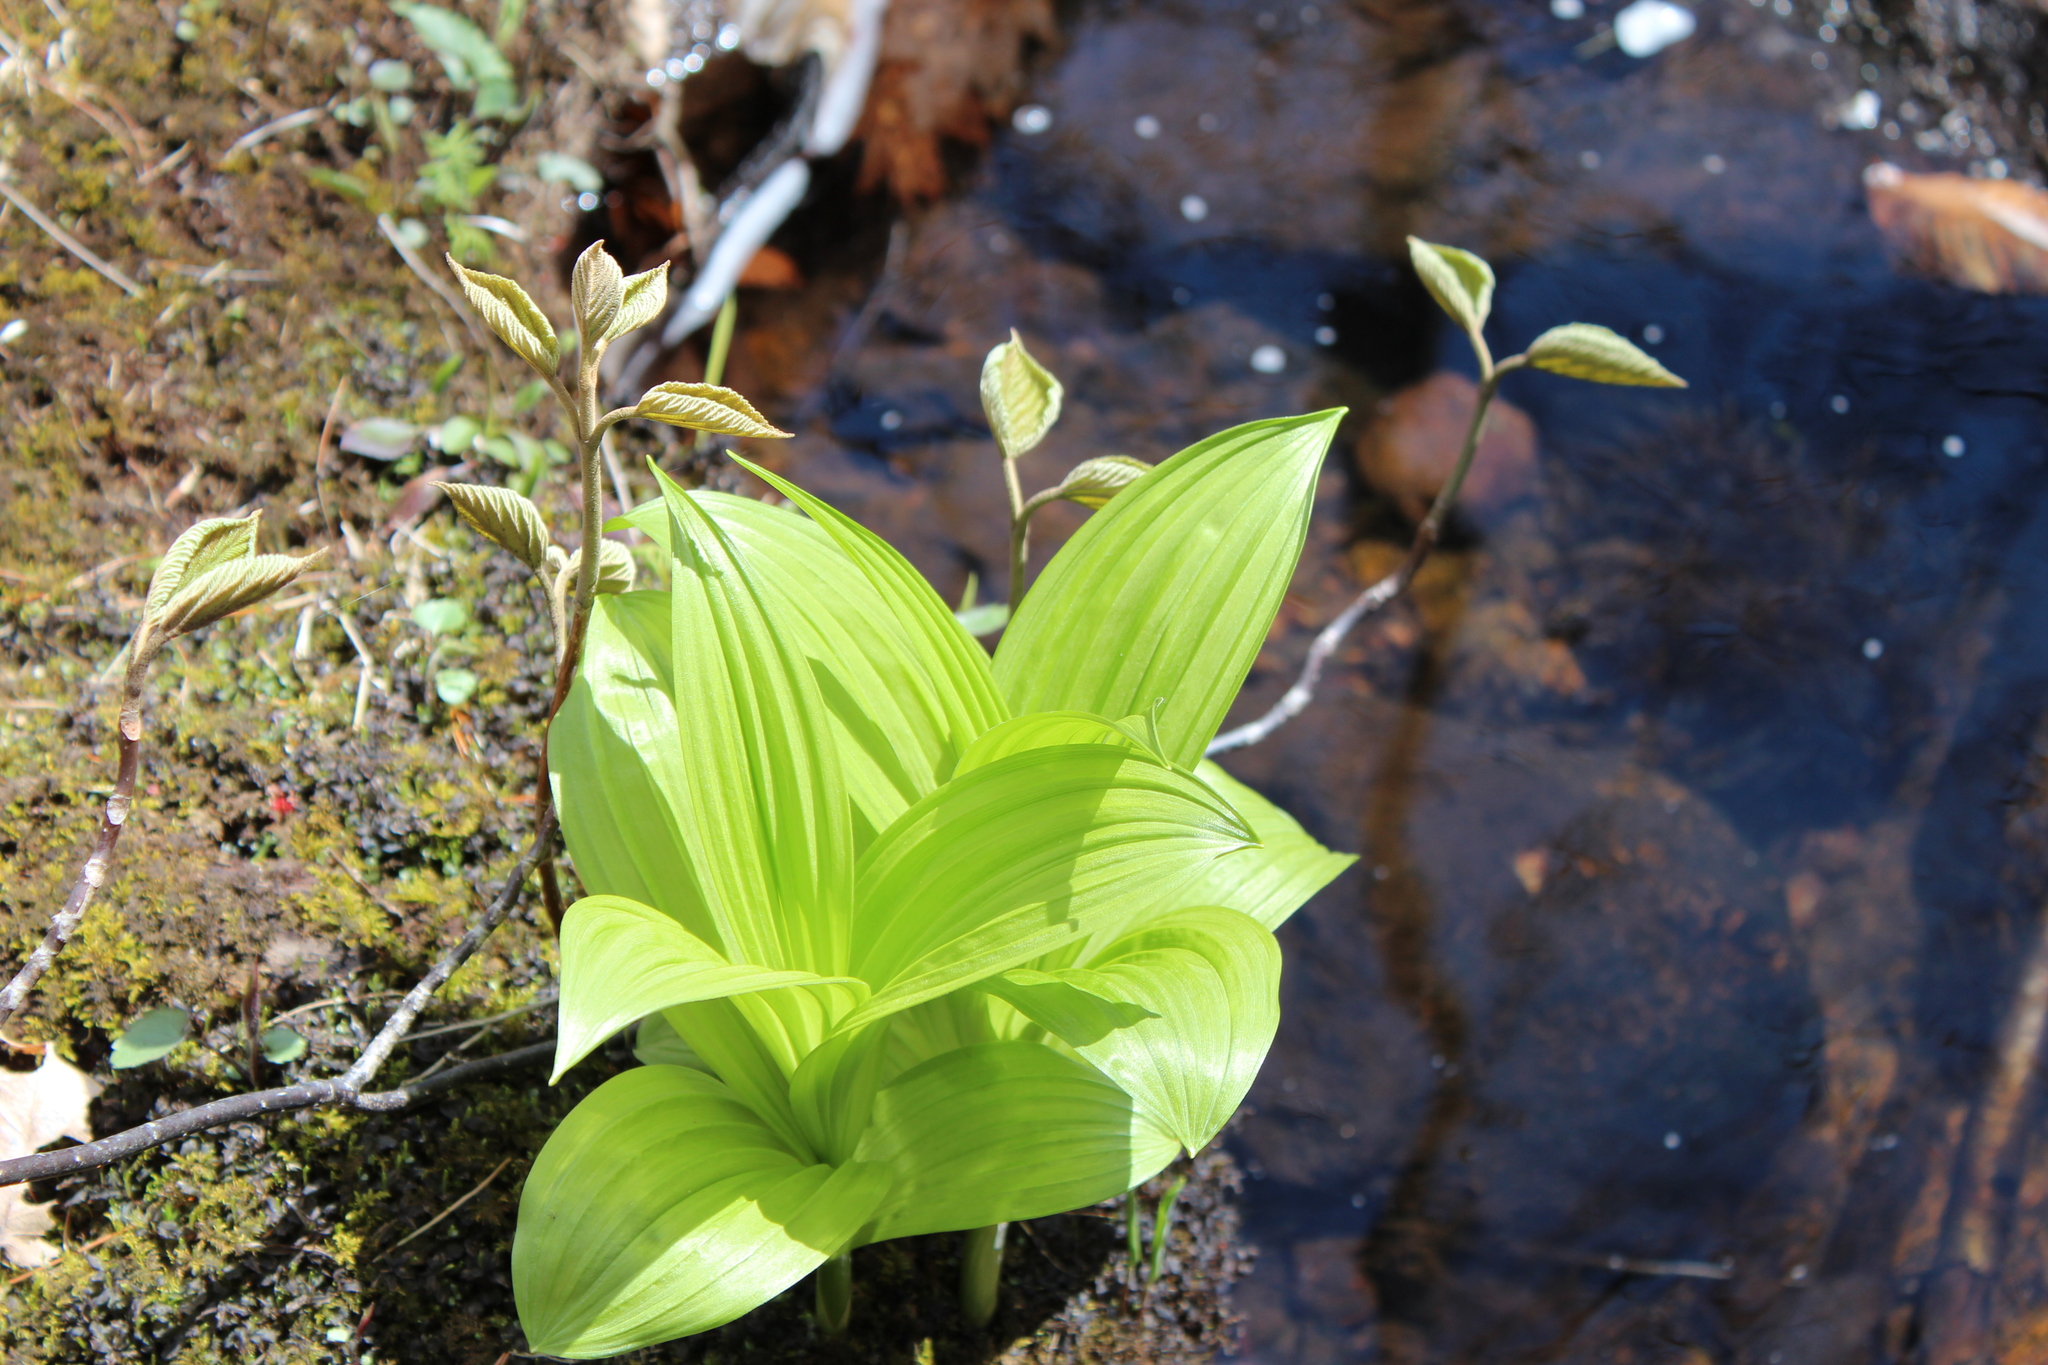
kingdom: Plantae
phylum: Tracheophyta
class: Liliopsida
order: Liliales
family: Melanthiaceae
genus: Veratrum
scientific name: Veratrum viride
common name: American false hellebore
